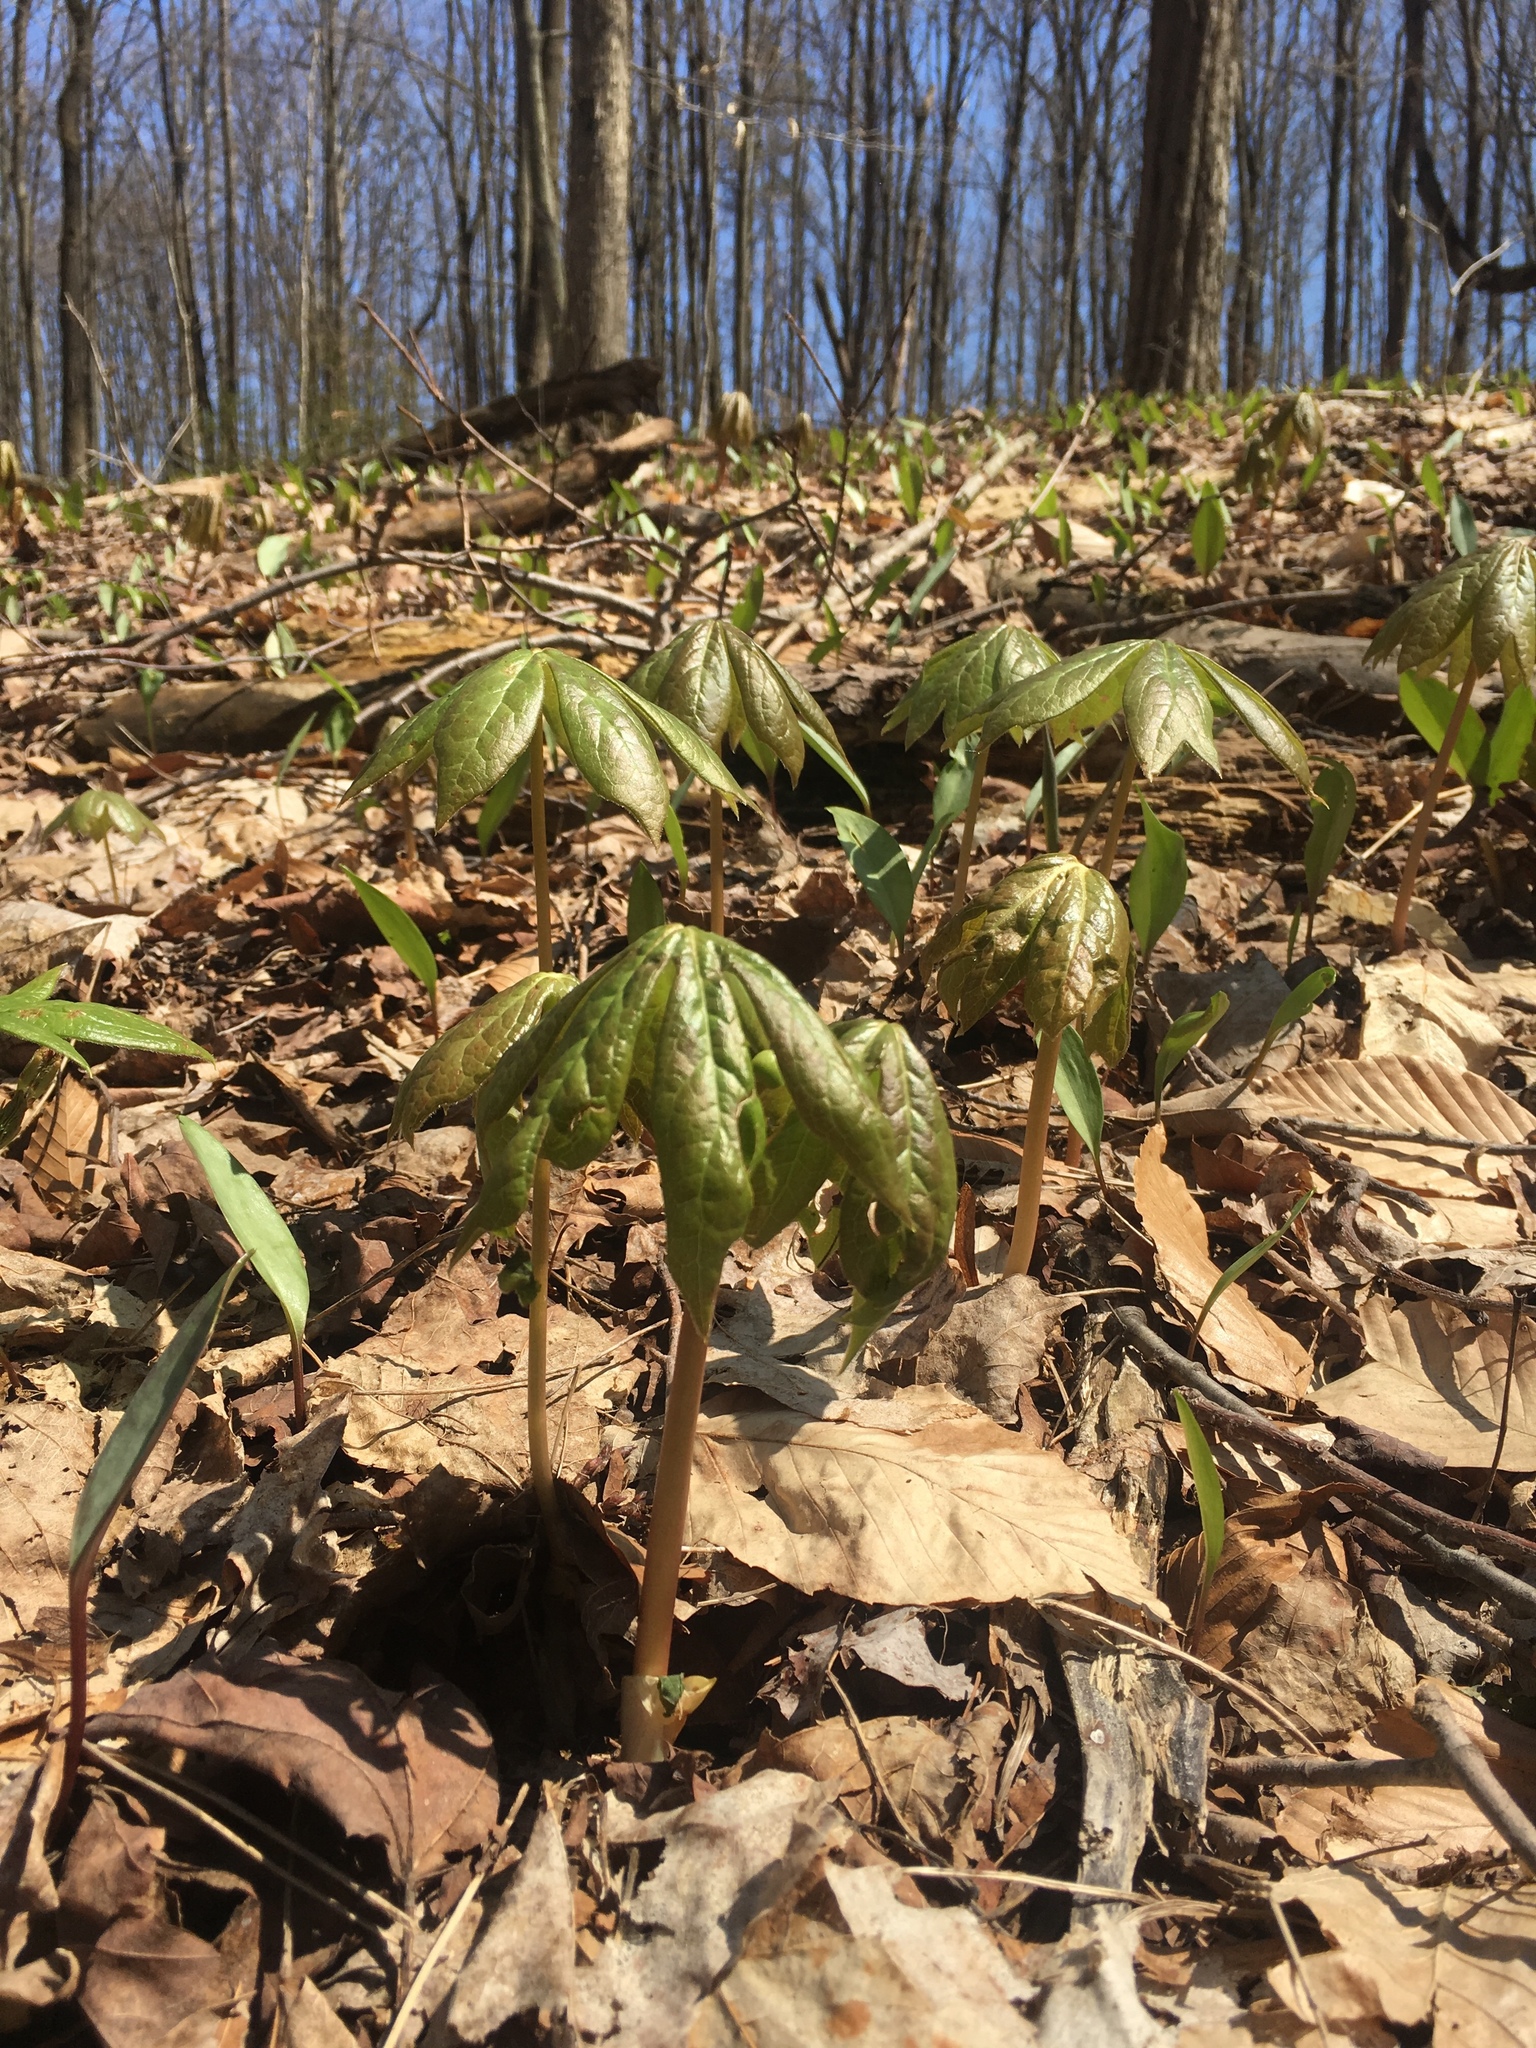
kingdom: Plantae
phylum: Tracheophyta
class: Magnoliopsida
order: Ranunculales
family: Berberidaceae
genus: Podophyllum
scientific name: Podophyllum peltatum
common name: Wild mandrake
